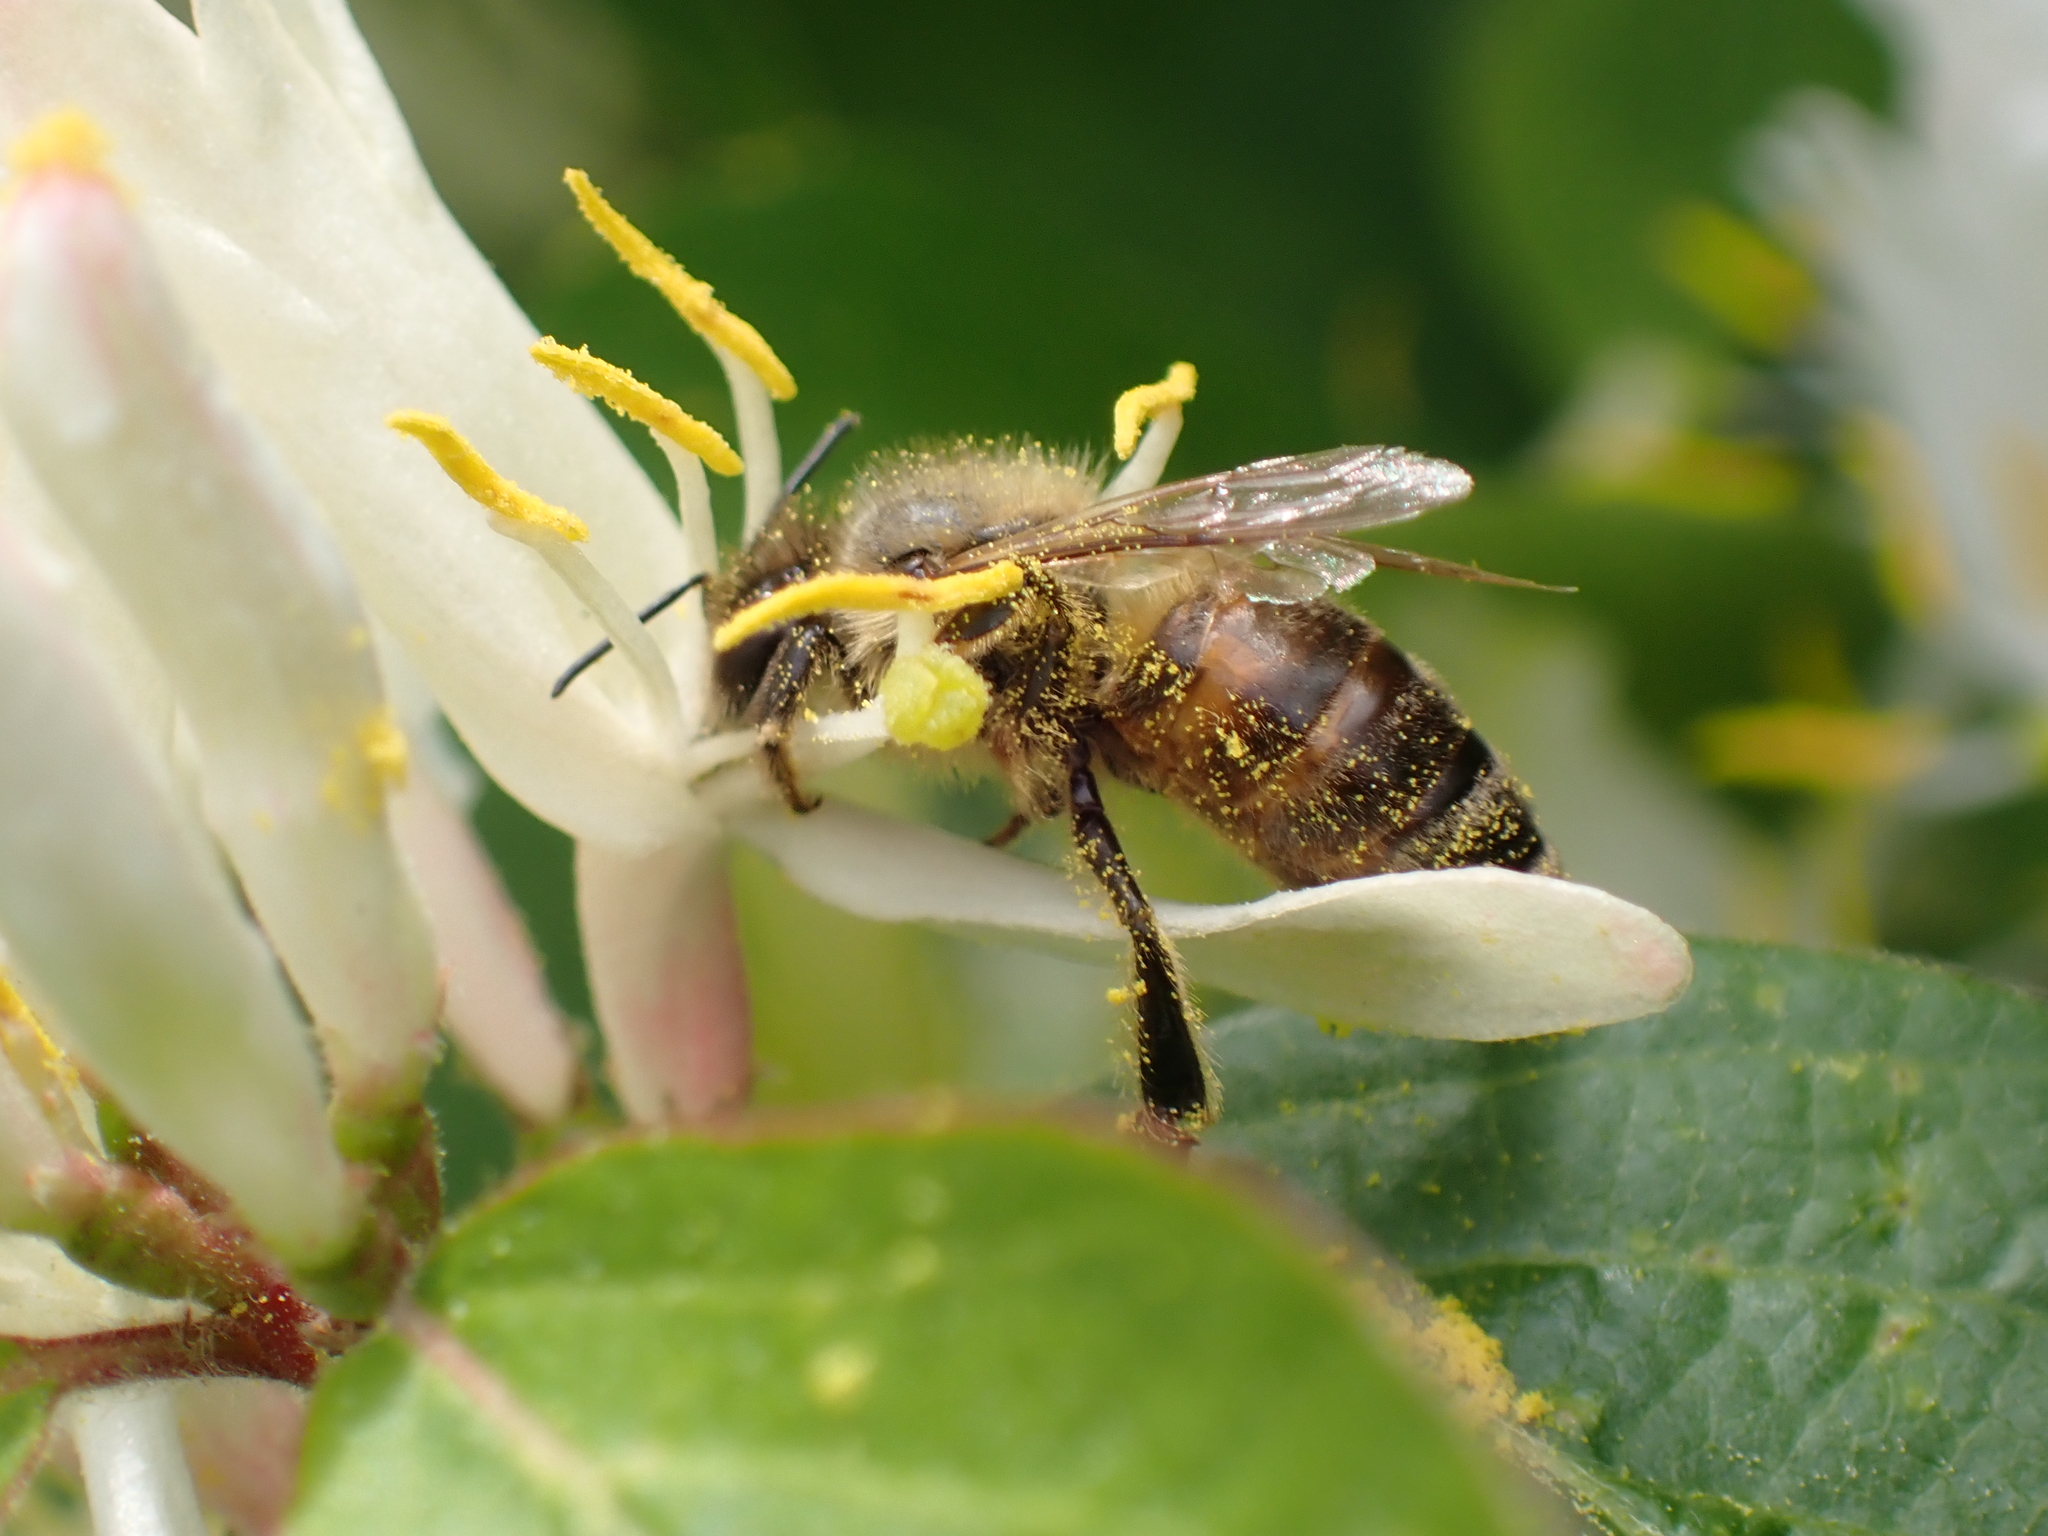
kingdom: Animalia
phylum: Arthropoda
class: Insecta
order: Hymenoptera
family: Apidae
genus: Apis
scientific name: Apis mellifera
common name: Honey bee
